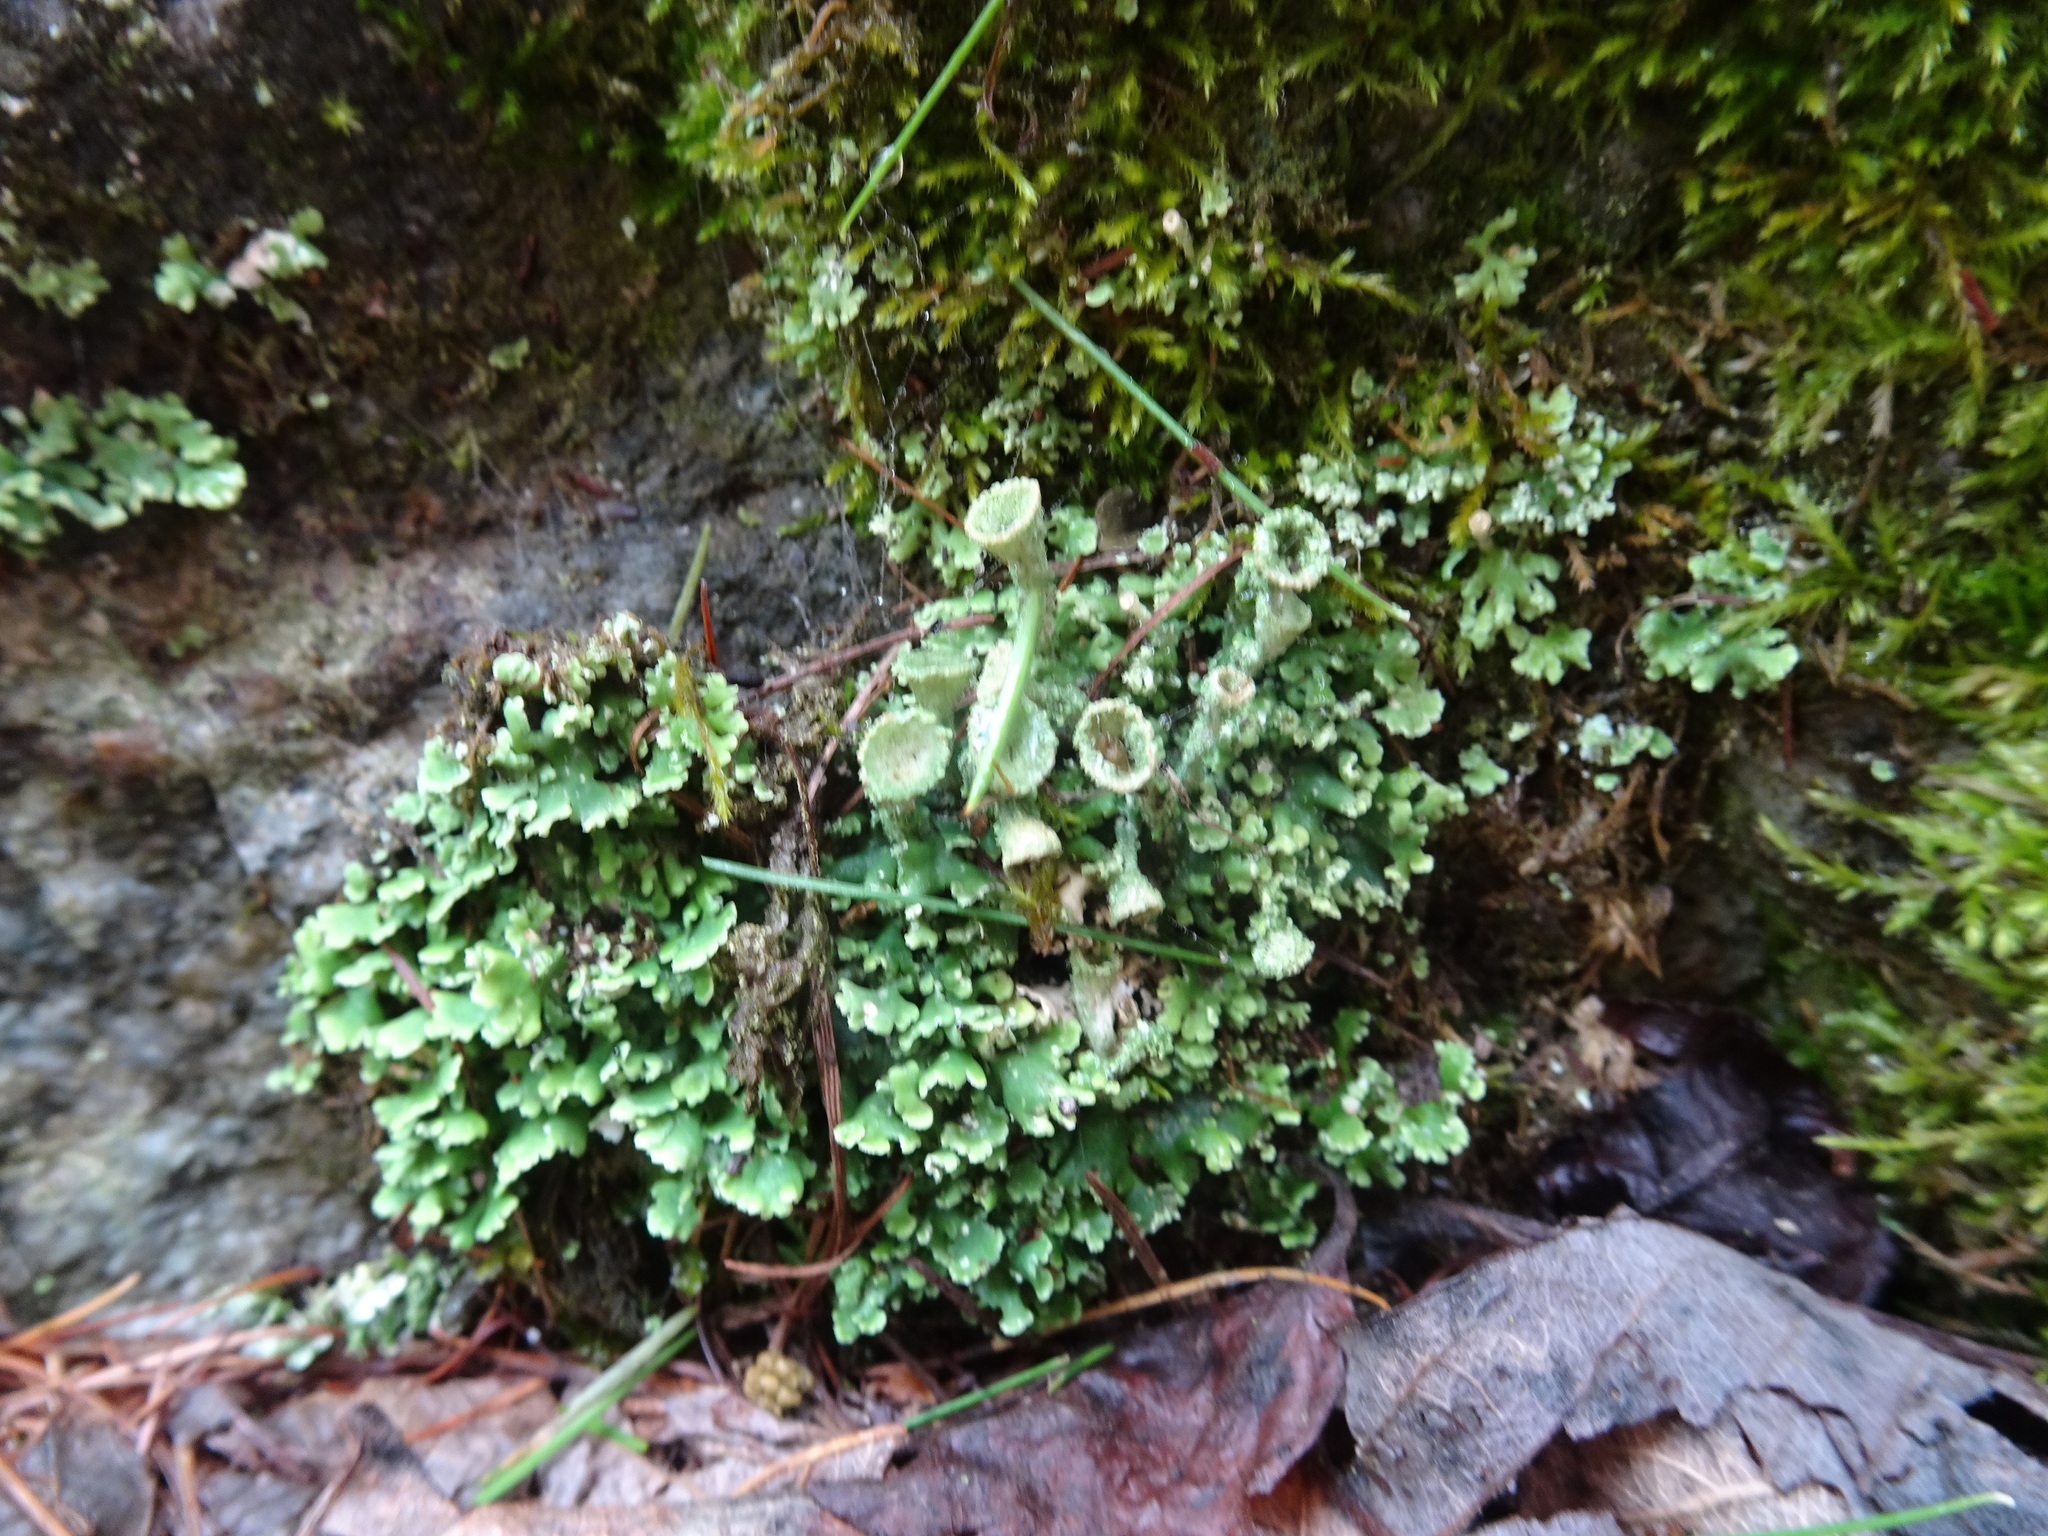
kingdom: Plantae
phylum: Tracheophyta
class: Magnoliopsida
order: Saxifragales
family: Saxifragaceae
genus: Saxifraga
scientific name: Saxifraga paniculata
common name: Livelong saxifrage
